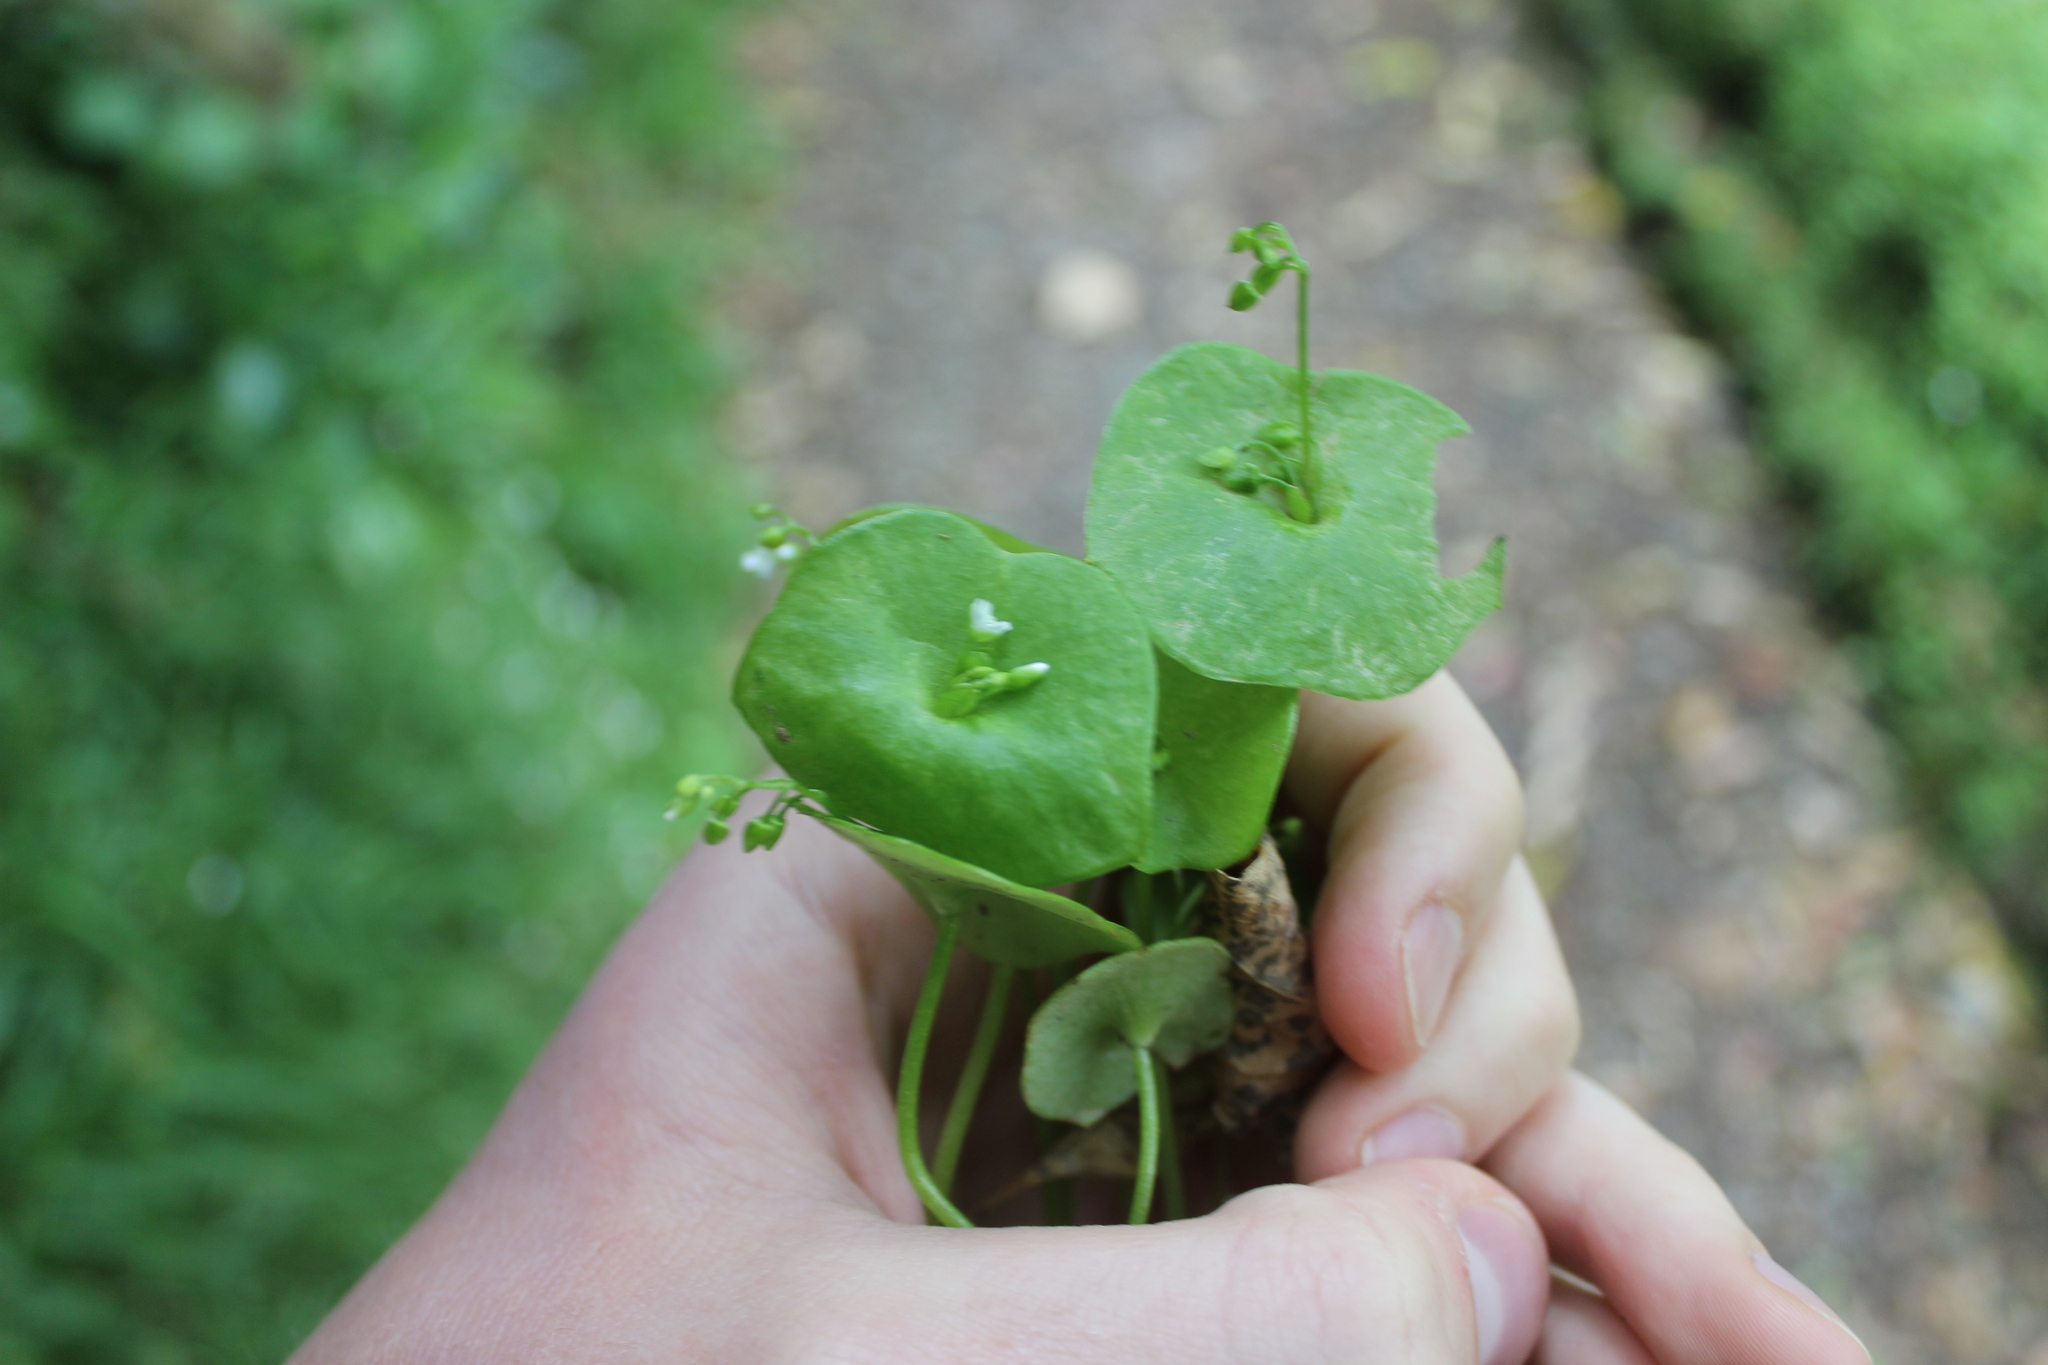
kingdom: Plantae
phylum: Tracheophyta
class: Magnoliopsida
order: Caryophyllales
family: Montiaceae
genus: Claytonia
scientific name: Claytonia perfoliata
